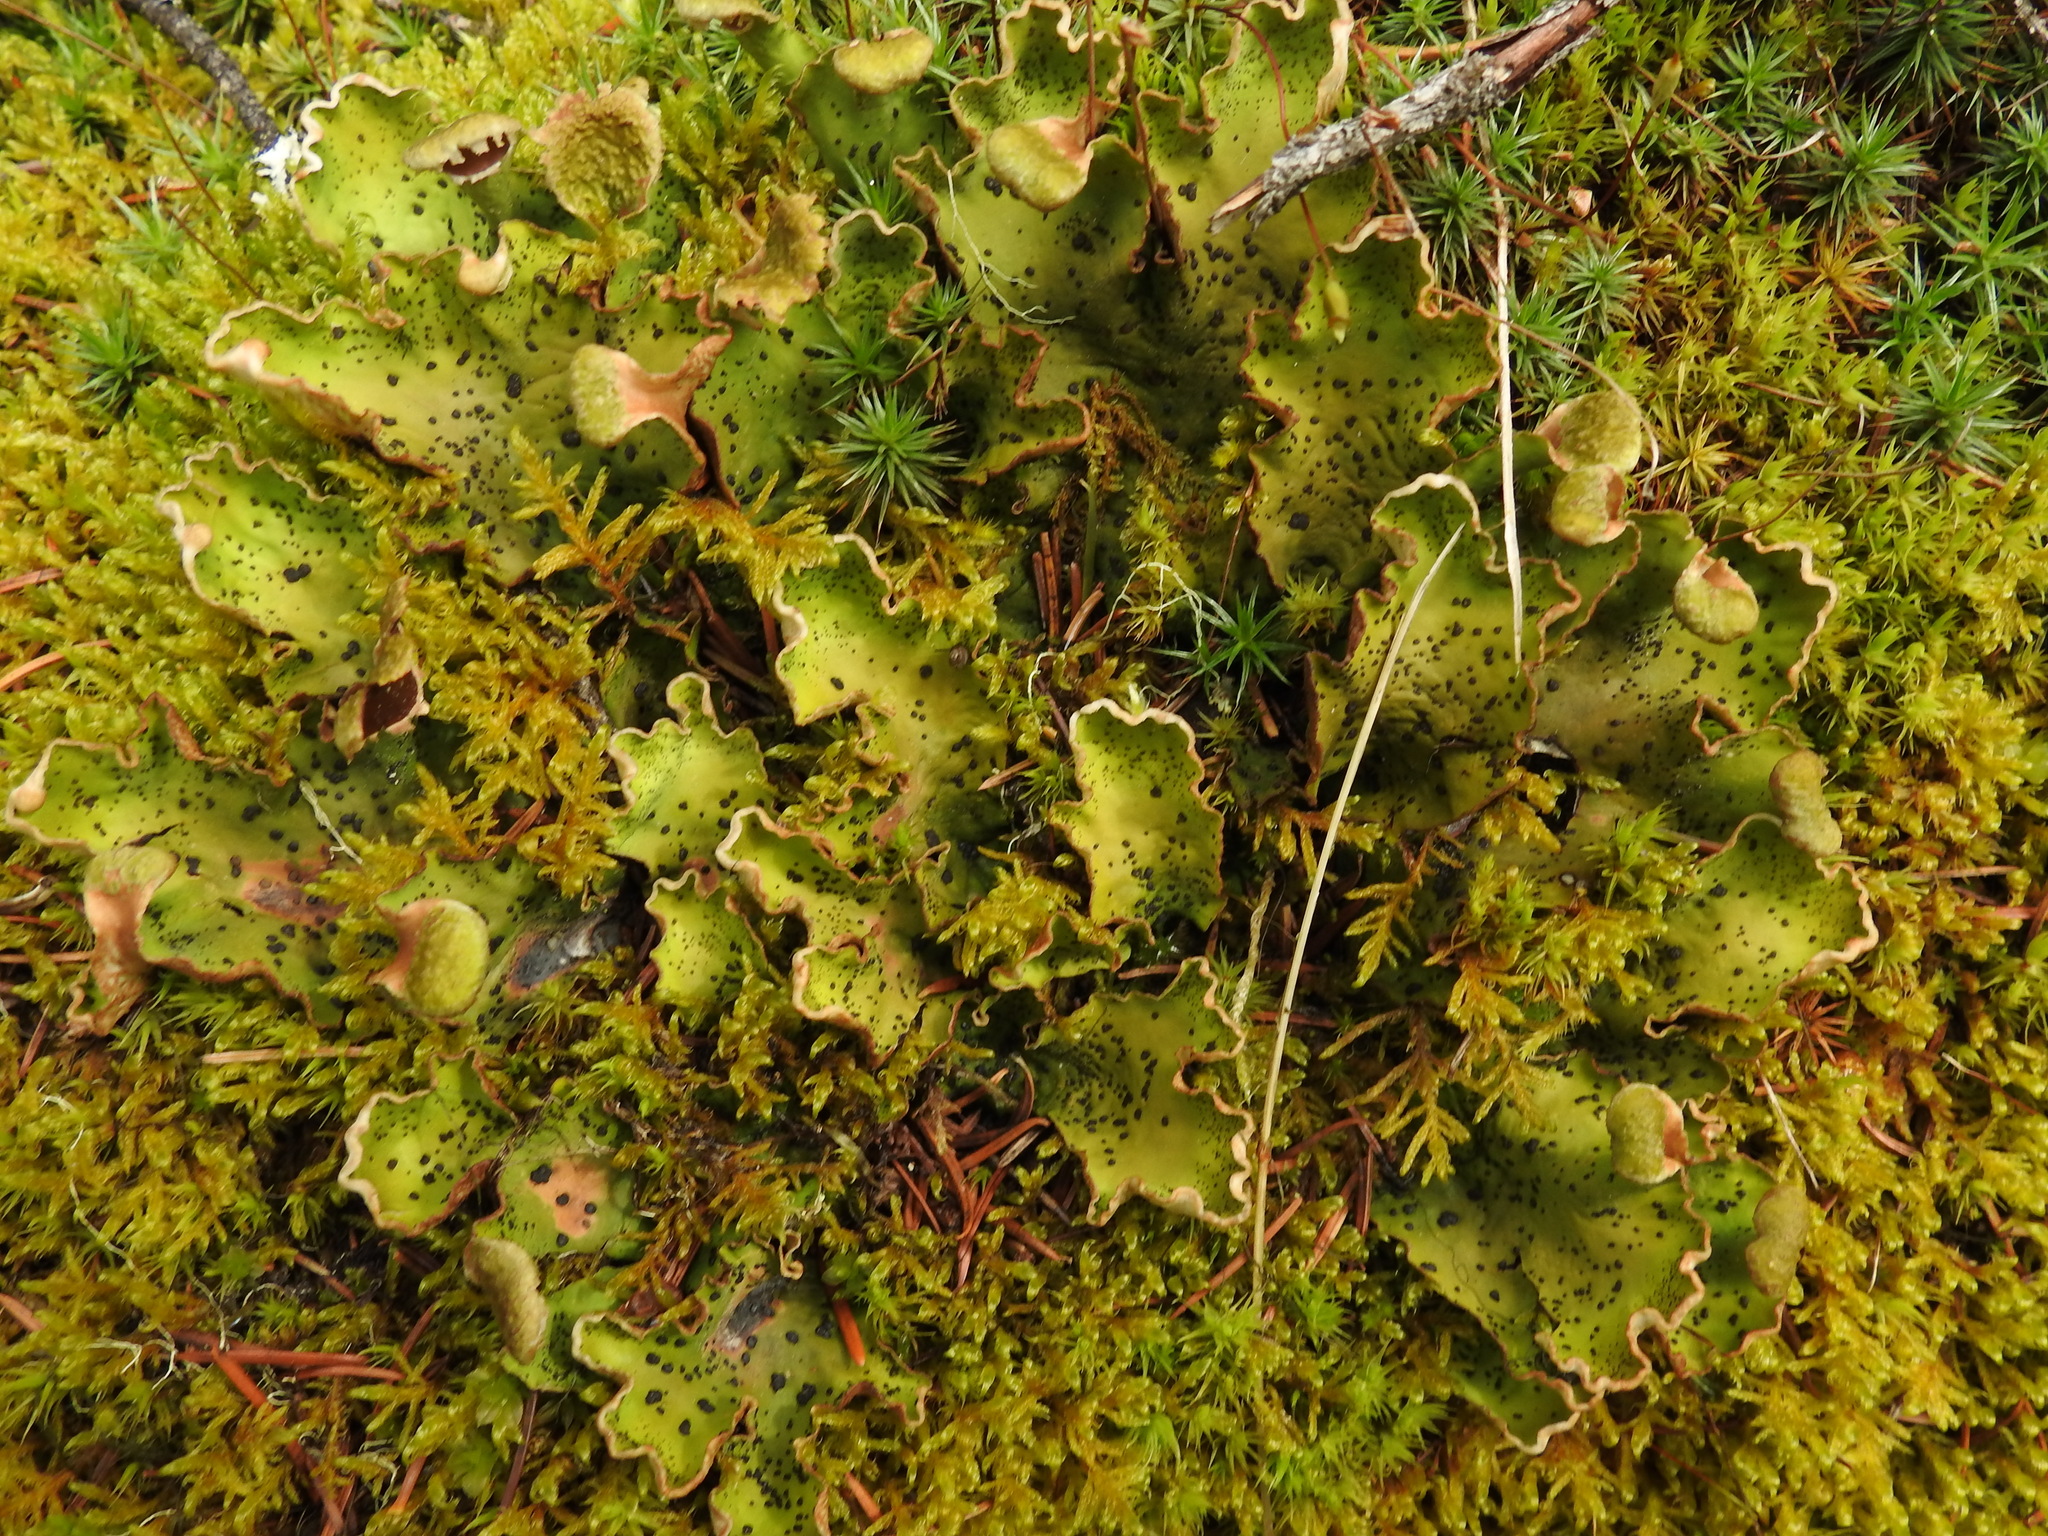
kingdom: Fungi
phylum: Ascomycota
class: Lecanoromycetes
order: Peltigerales
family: Peltigeraceae
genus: Peltigera
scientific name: Peltigera aphthosa
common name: Common freckle pelt lichen
